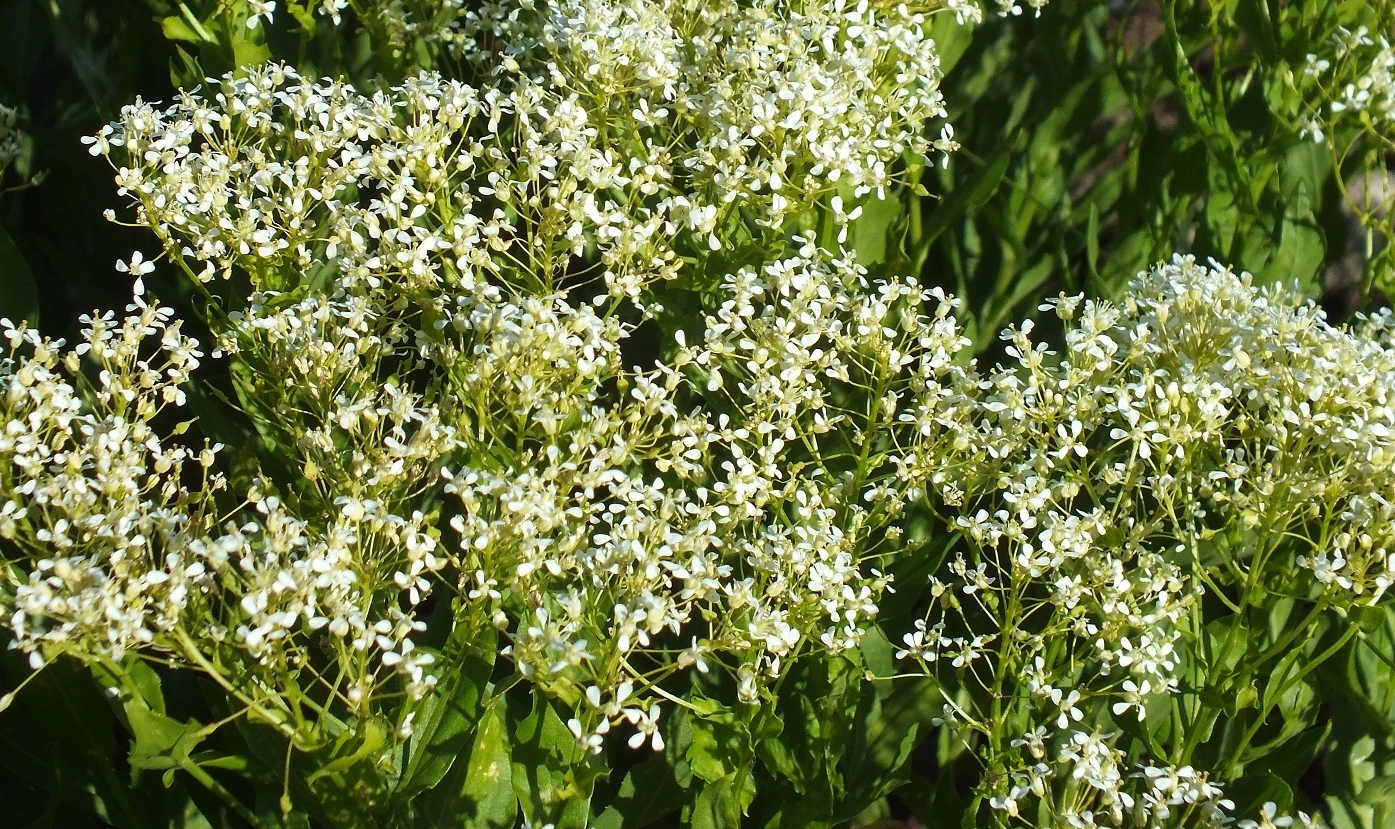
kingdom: Plantae
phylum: Tracheophyta
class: Magnoliopsida
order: Brassicales
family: Brassicaceae
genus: Lepidium
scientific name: Lepidium draba
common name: Hoary cress
